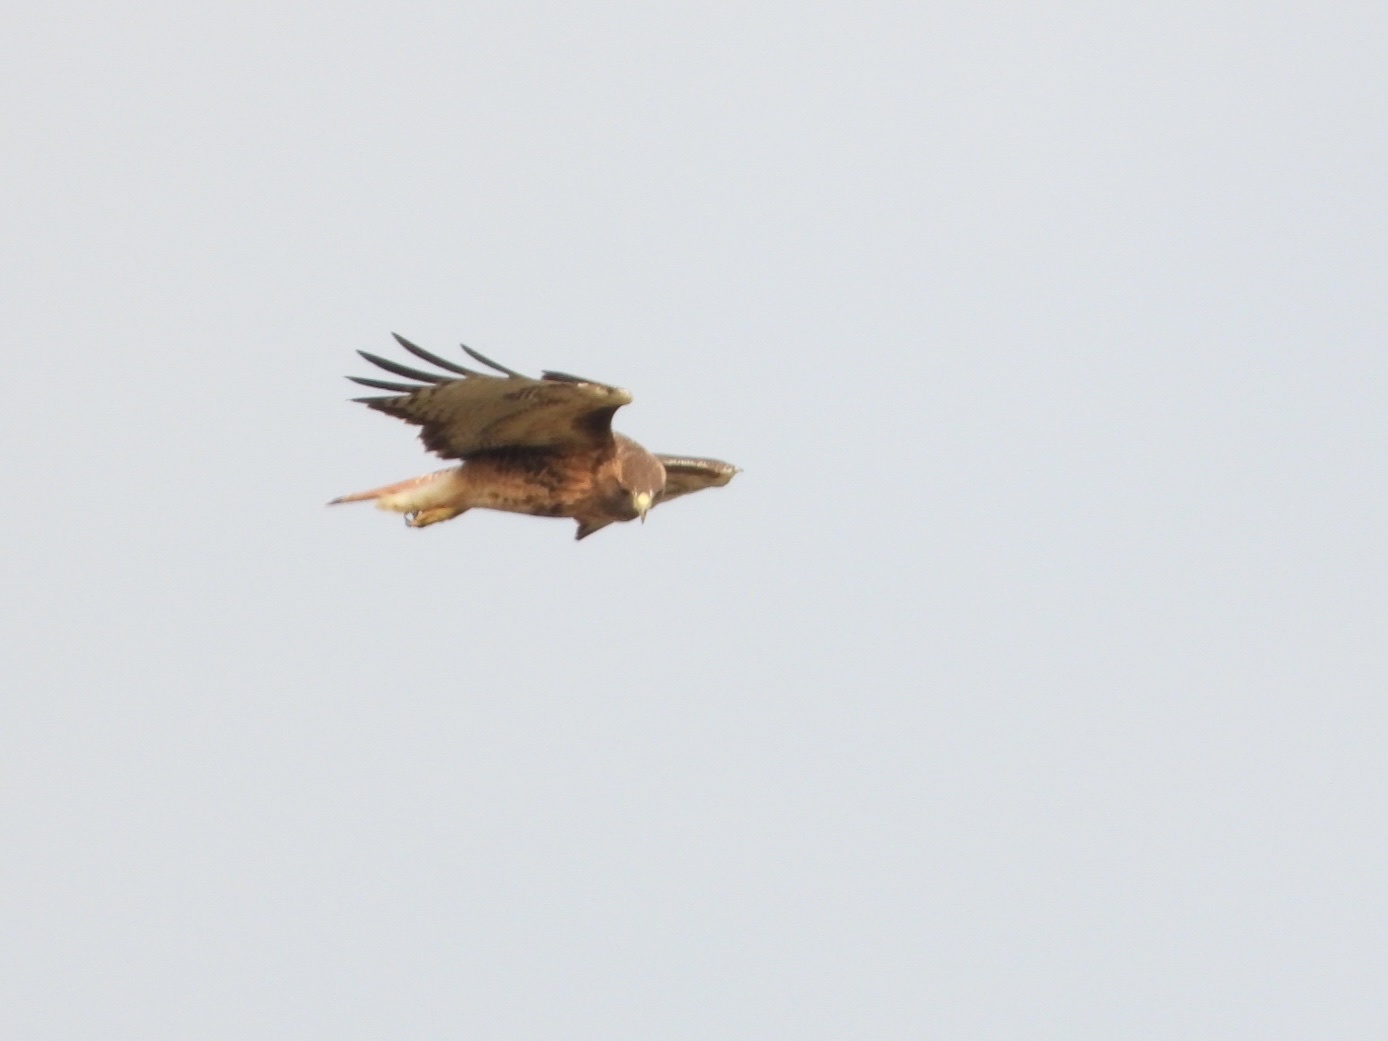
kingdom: Animalia
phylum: Chordata
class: Aves
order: Accipitriformes
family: Accipitridae
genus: Buteo
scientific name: Buteo jamaicensis
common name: Red-tailed hawk
